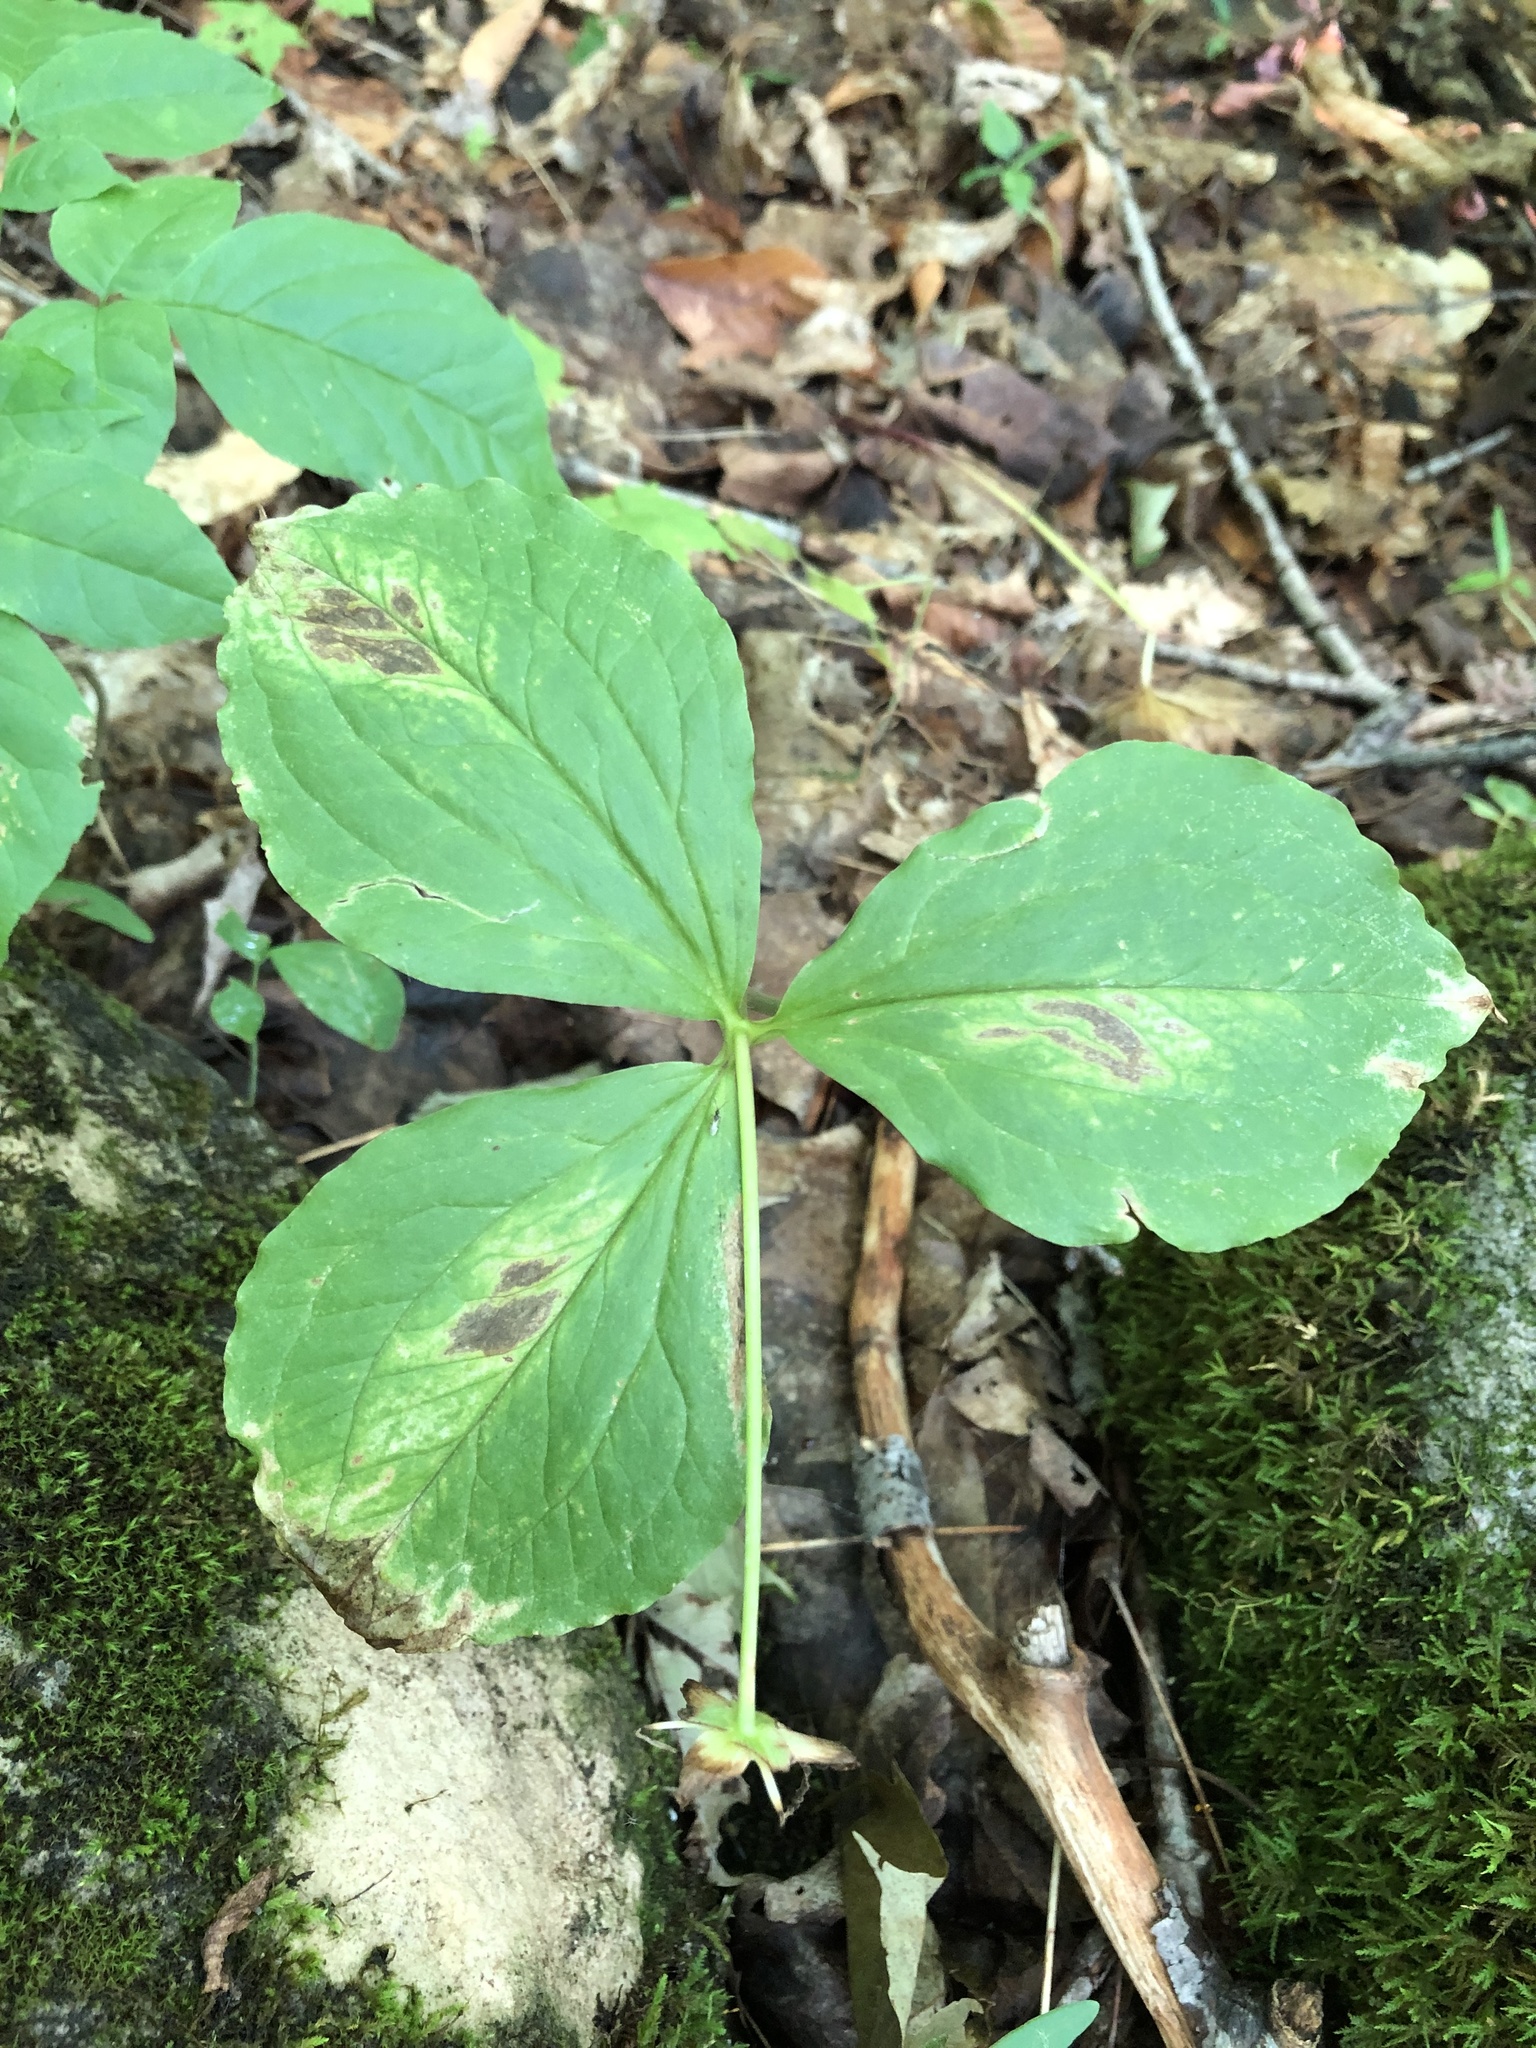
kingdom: Plantae
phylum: Tracheophyta
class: Liliopsida
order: Liliales
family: Melanthiaceae
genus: Trillium
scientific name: Trillium grandiflorum
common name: Great white trillium
